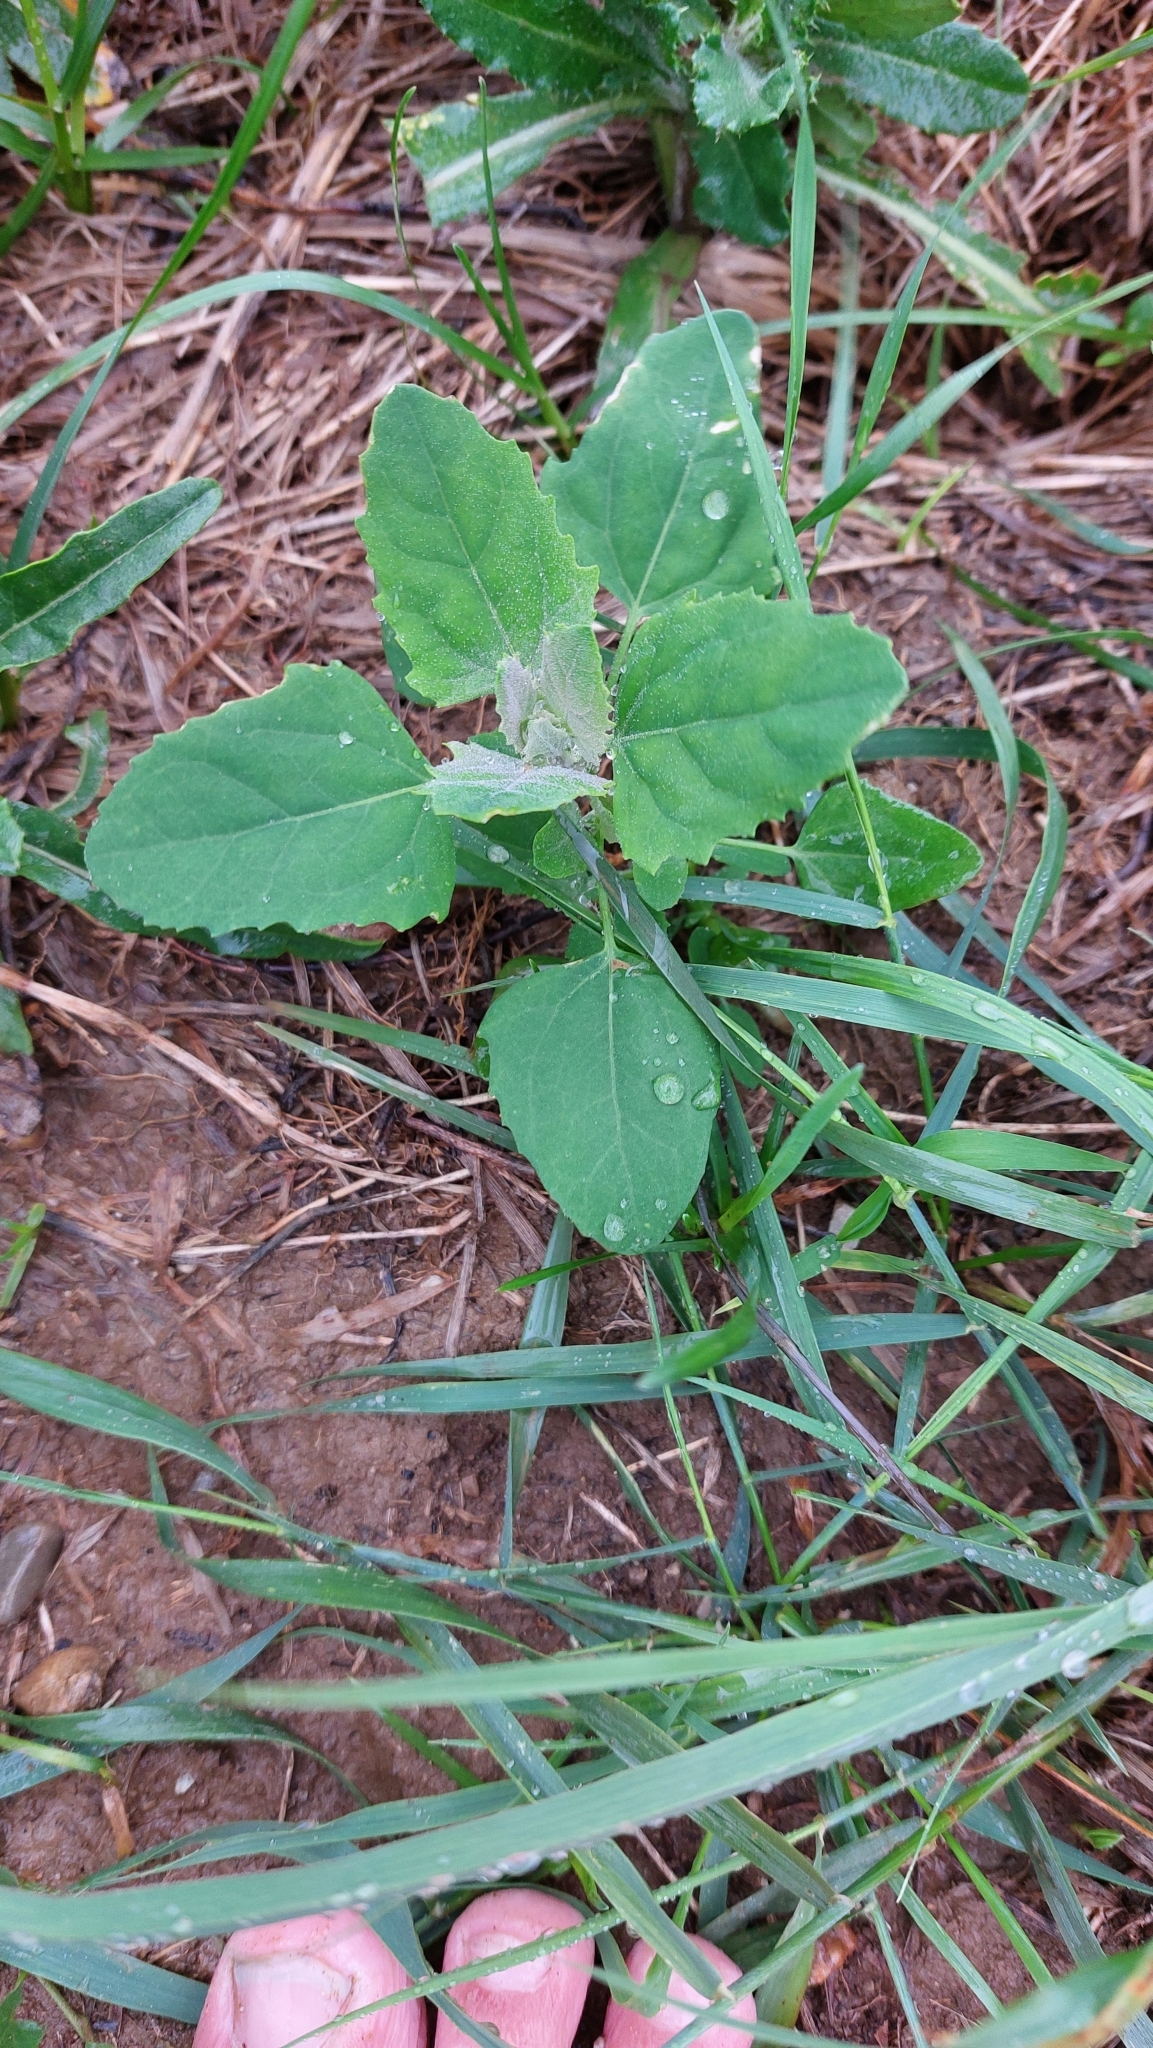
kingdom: Plantae
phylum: Tracheophyta
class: Magnoliopsida
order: Caryophyllales
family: Amaranthaceae
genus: Chenopodium
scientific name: Chenopodium album
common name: Fat-hen
